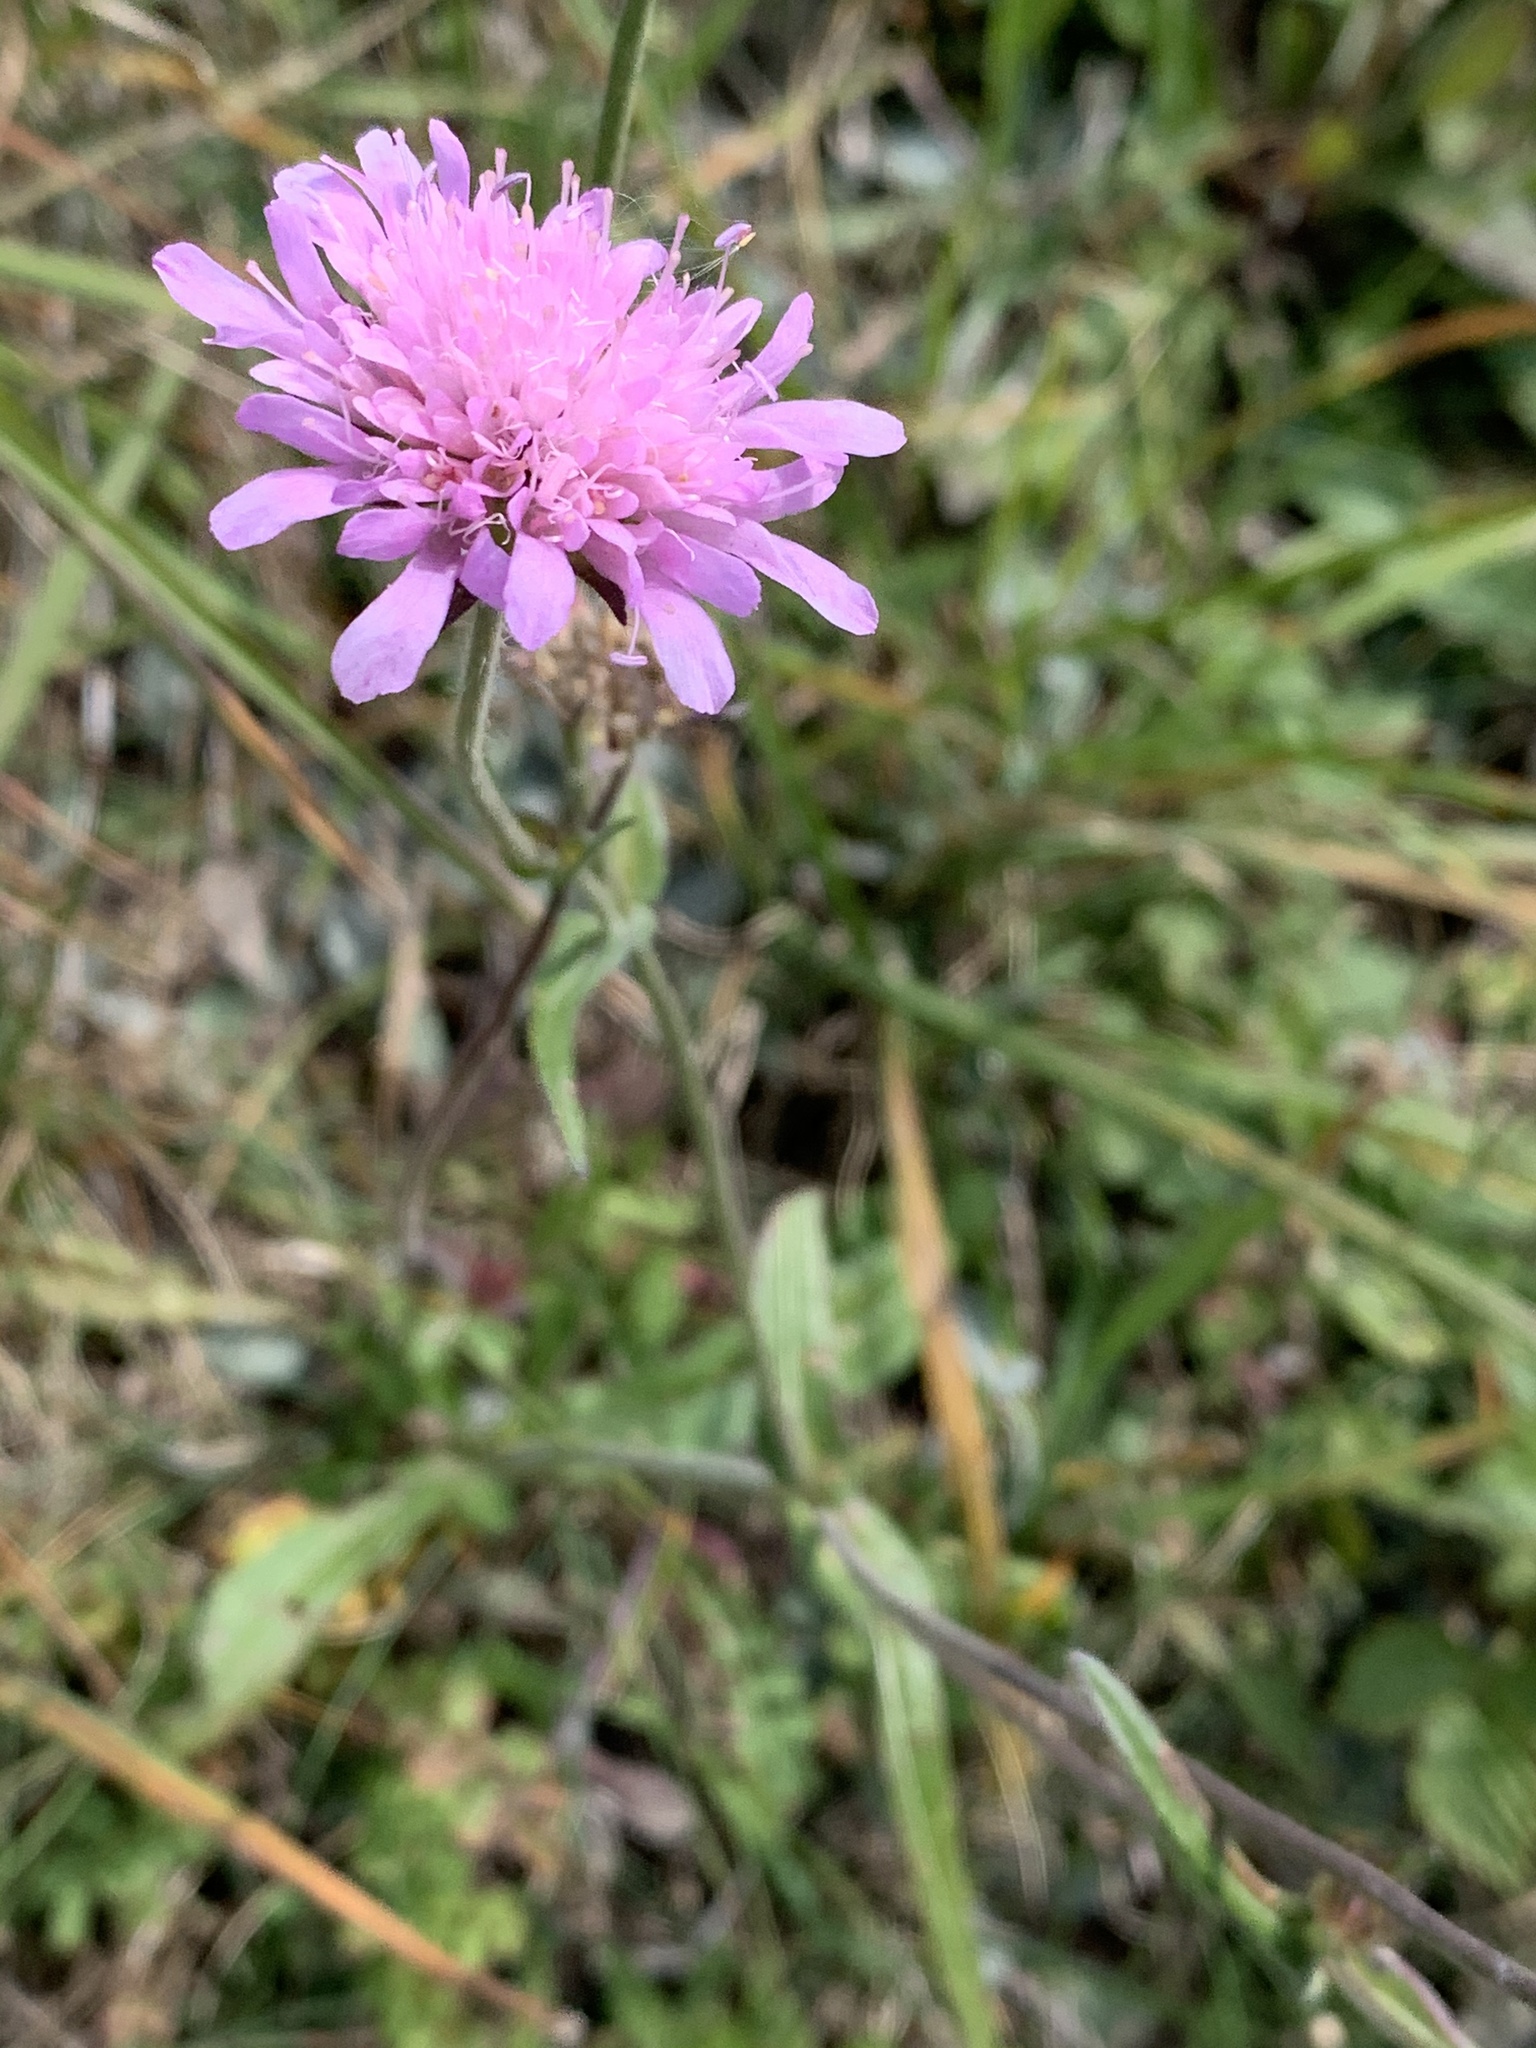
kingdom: Plantae
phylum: Tracheophyta
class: Magnoliopsida
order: Dipsacales
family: Caprifoliaceae
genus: Knautia
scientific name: Knautia transalpina
